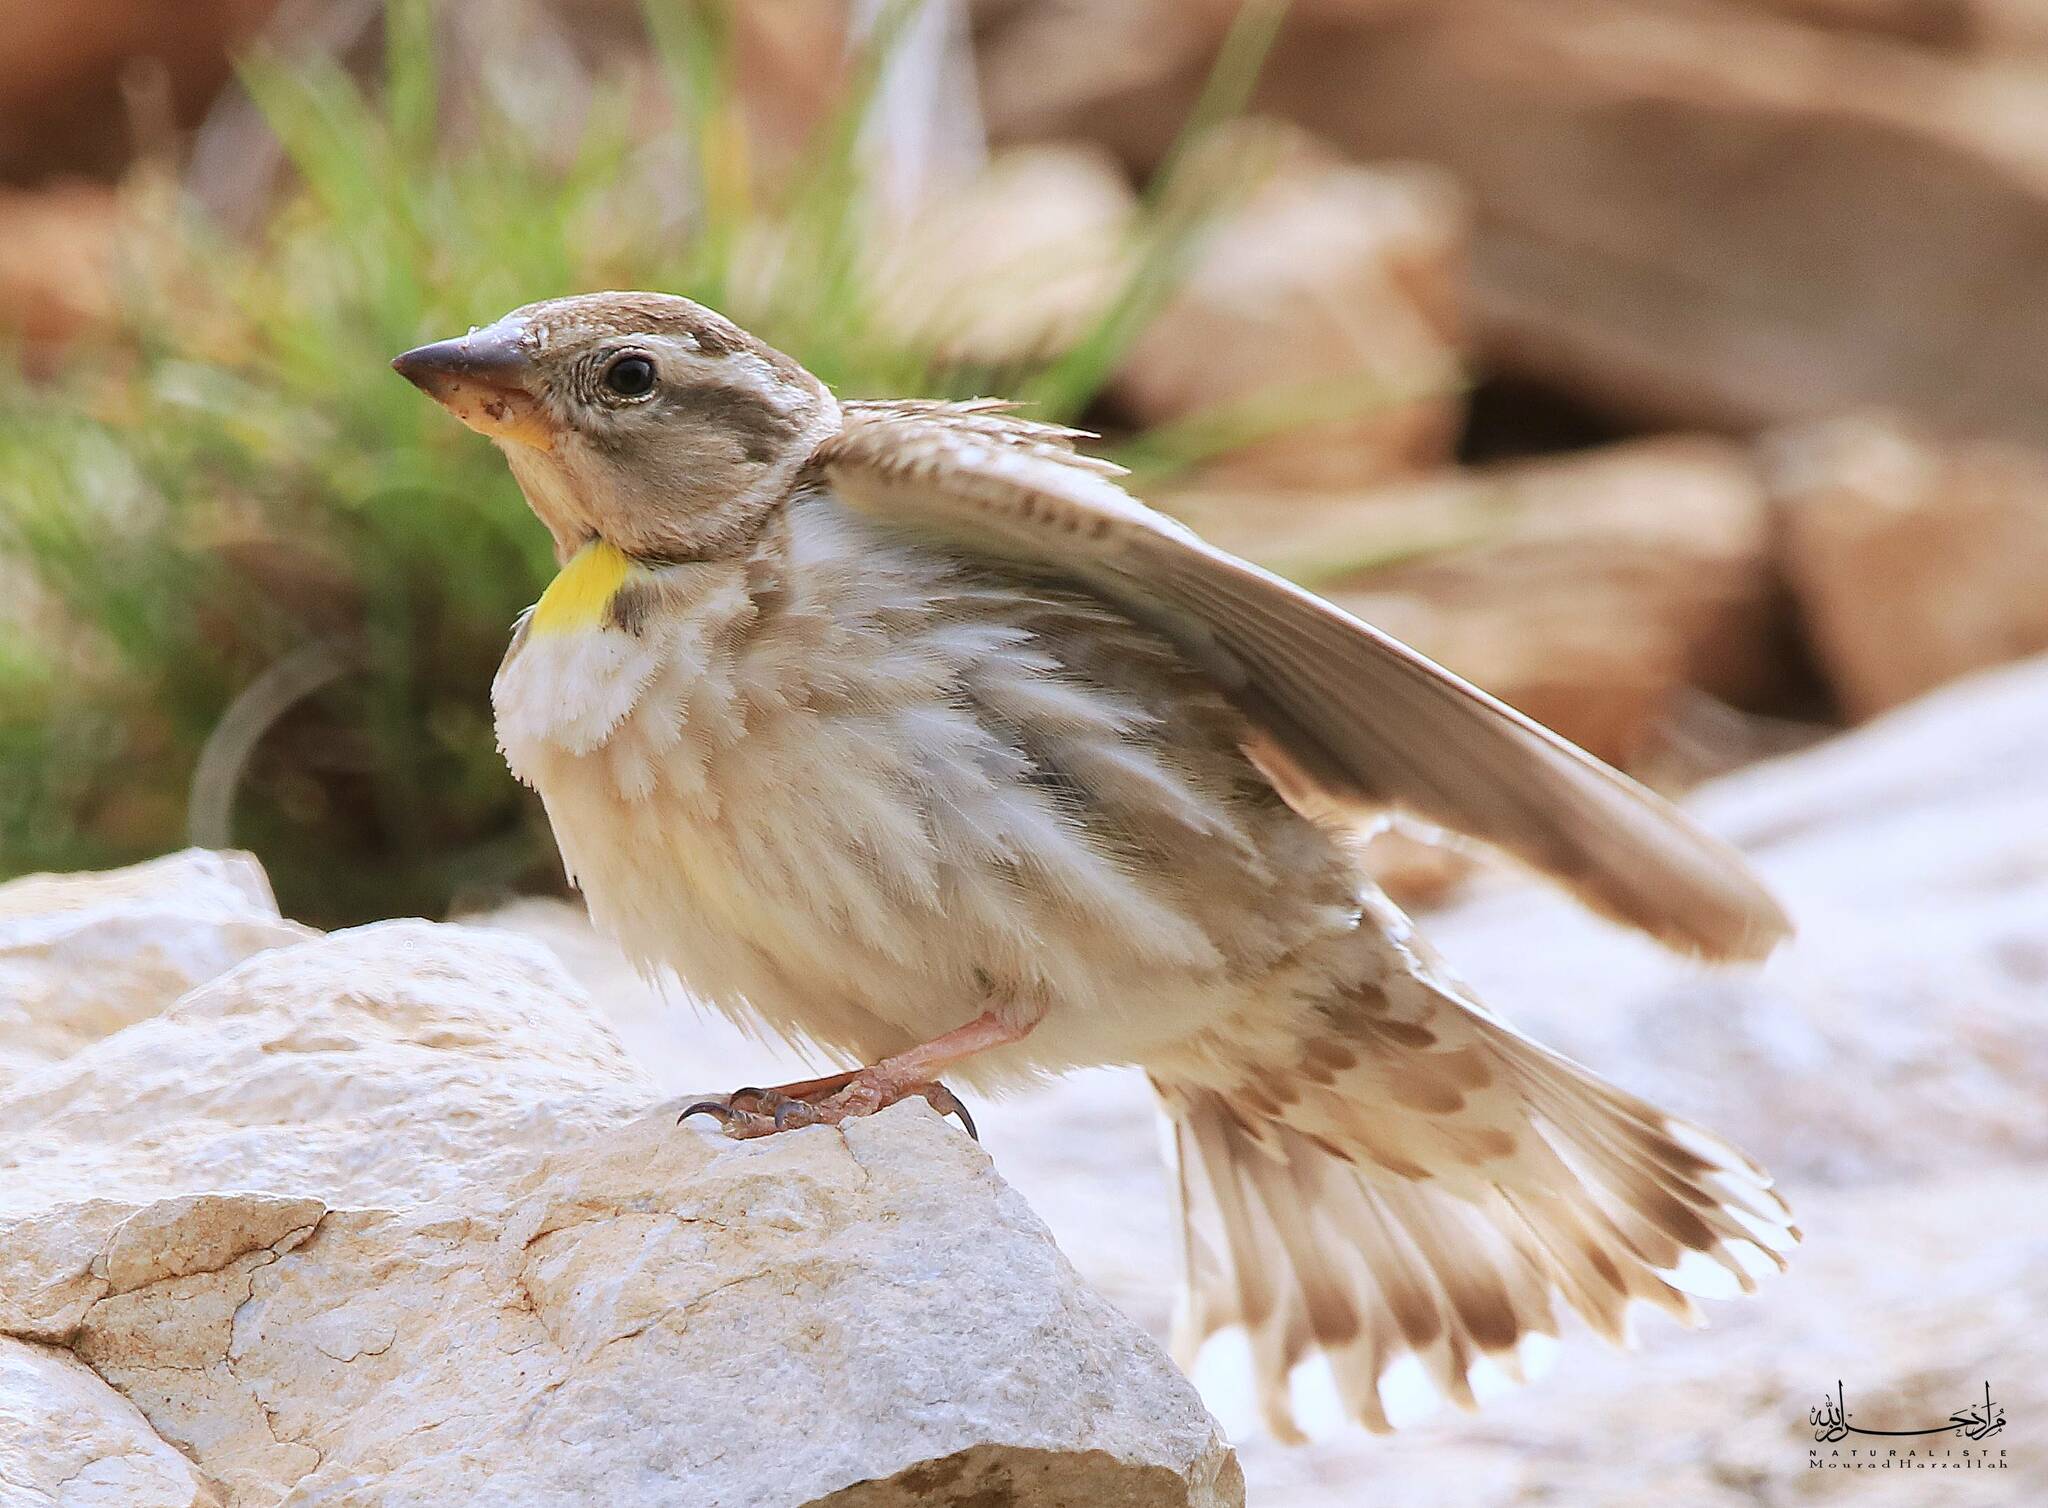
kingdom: Animalia
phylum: Chordata
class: Aves
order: Passeriformes
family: Passeridae
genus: Petronia
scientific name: Petronia petronia
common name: Rock sparrow
